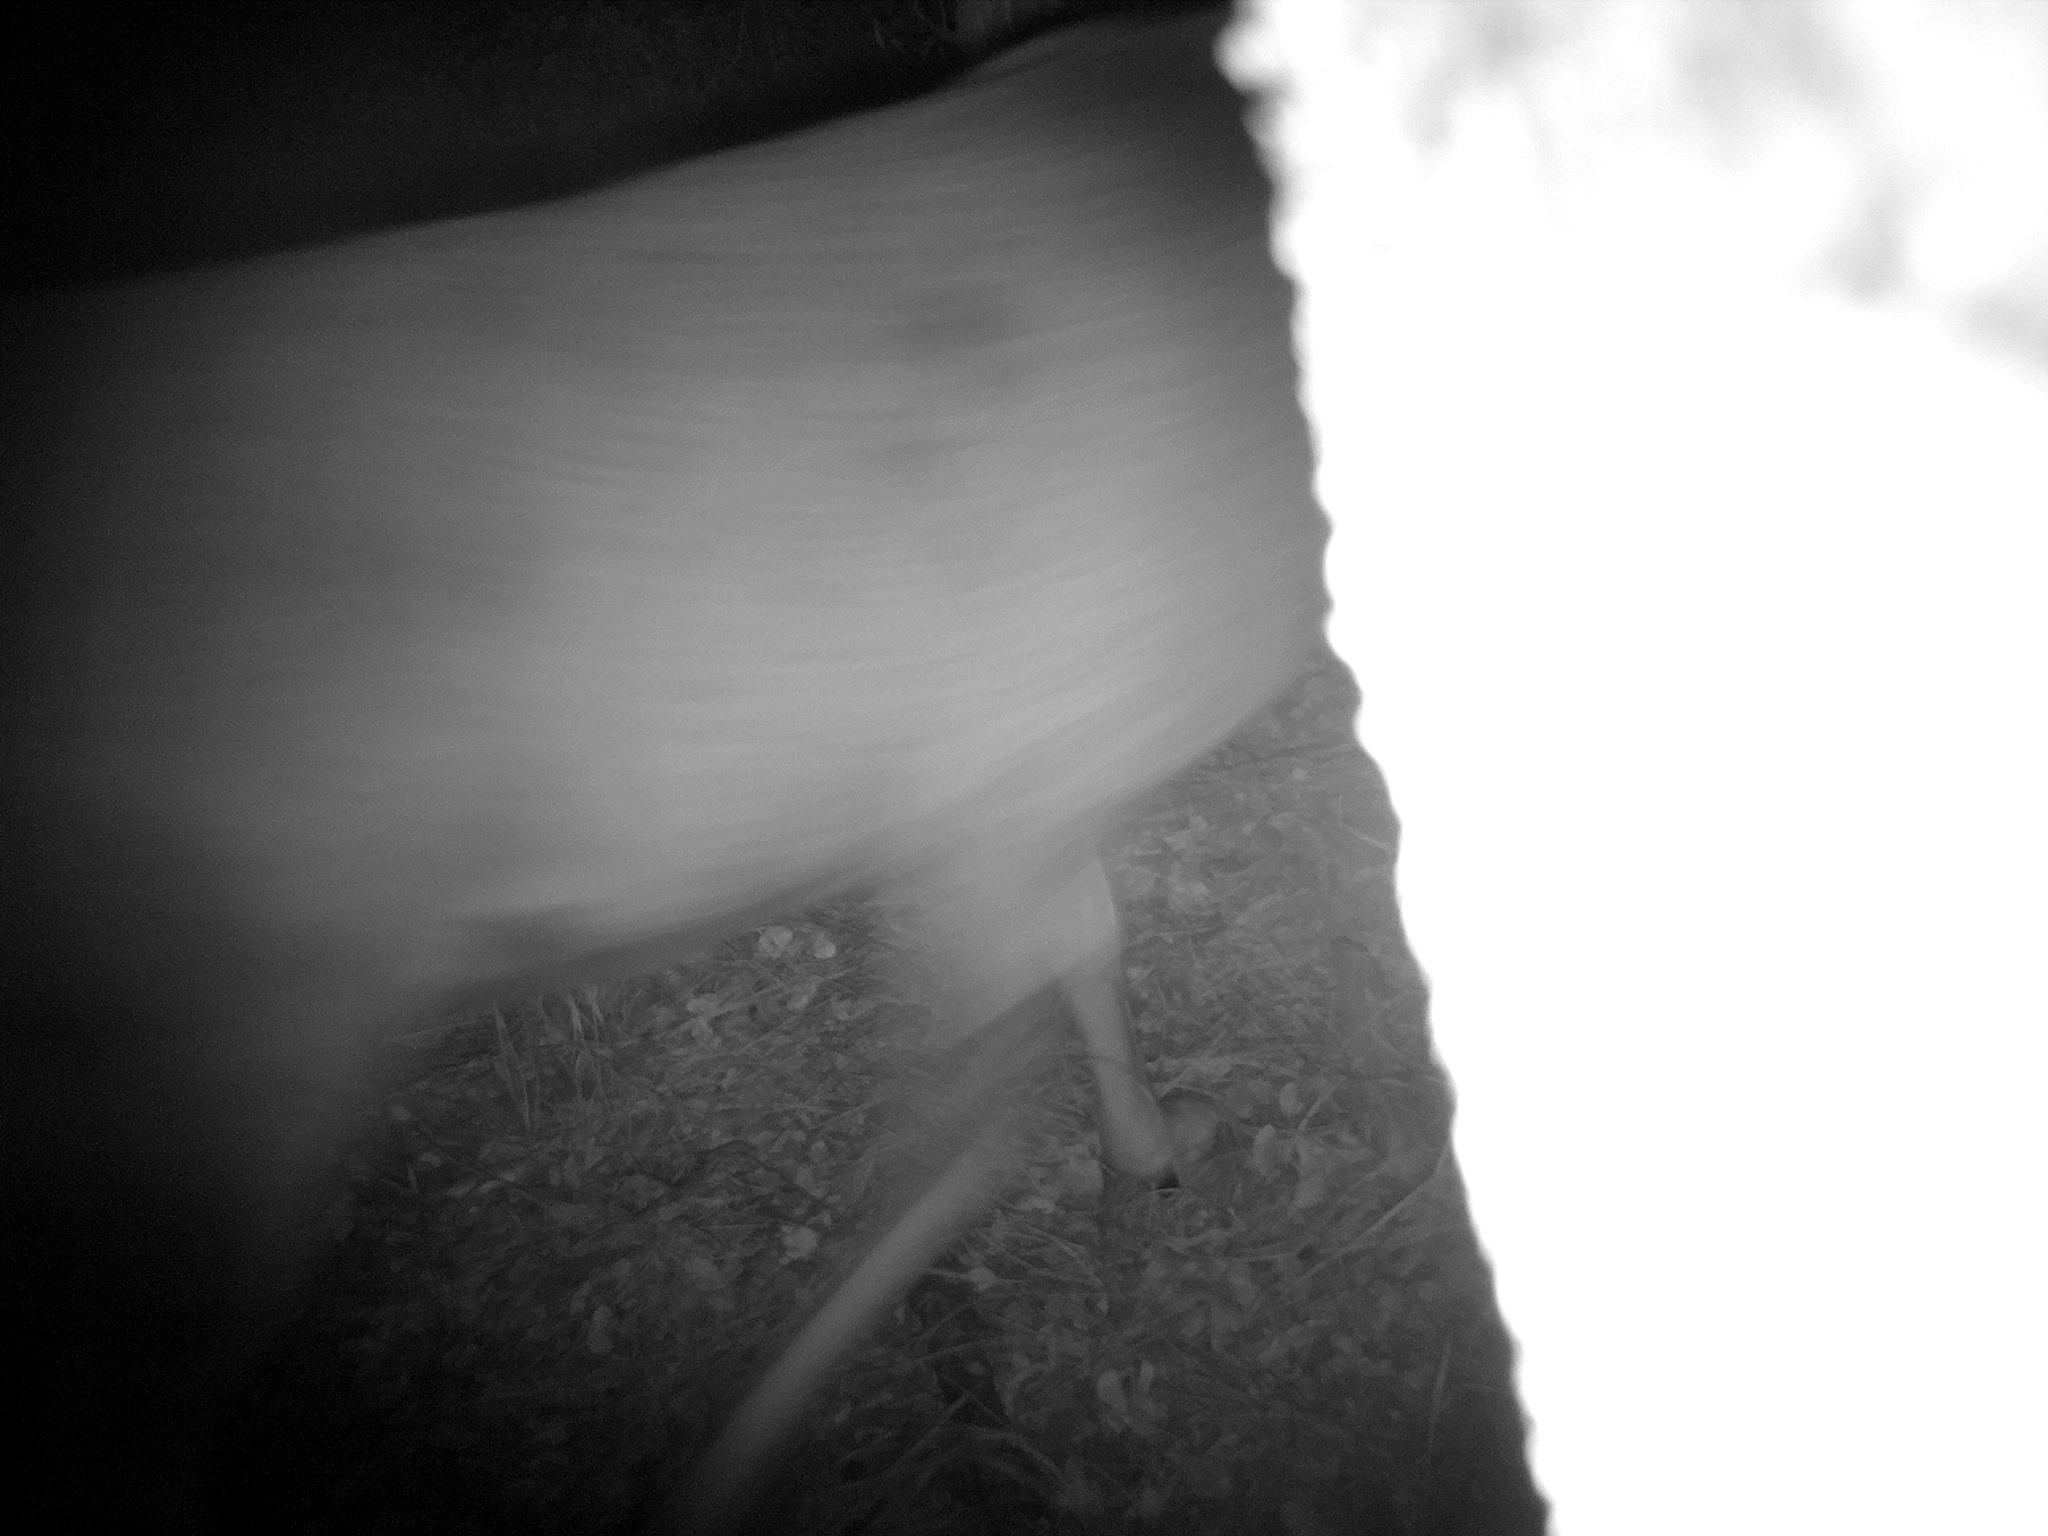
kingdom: Animalia
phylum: Chordata
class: Mammalia
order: Artiodactyla
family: Cervidae
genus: Odocoileus
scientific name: Odocoileus hemionus
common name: Mule deer
